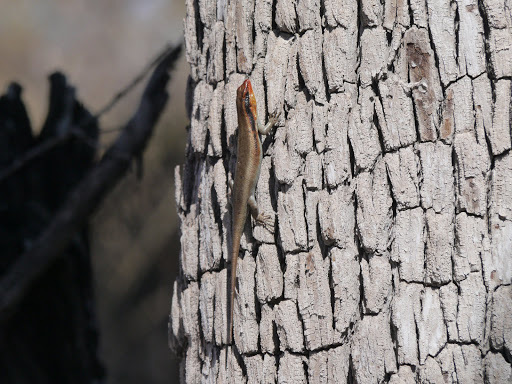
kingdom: Animalia
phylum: Chordata
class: Squamata
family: Scincidae
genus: Trachylepis
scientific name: Trachylepis wahlbergii
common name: Wahlberg’s striped skink
